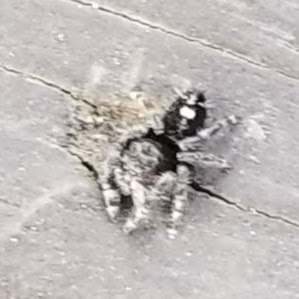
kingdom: Animalia
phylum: Arthropoda
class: Arachnida
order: Araneae
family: Salticidae
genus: Phidippus
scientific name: Phidippus audax
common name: Bold jumper
